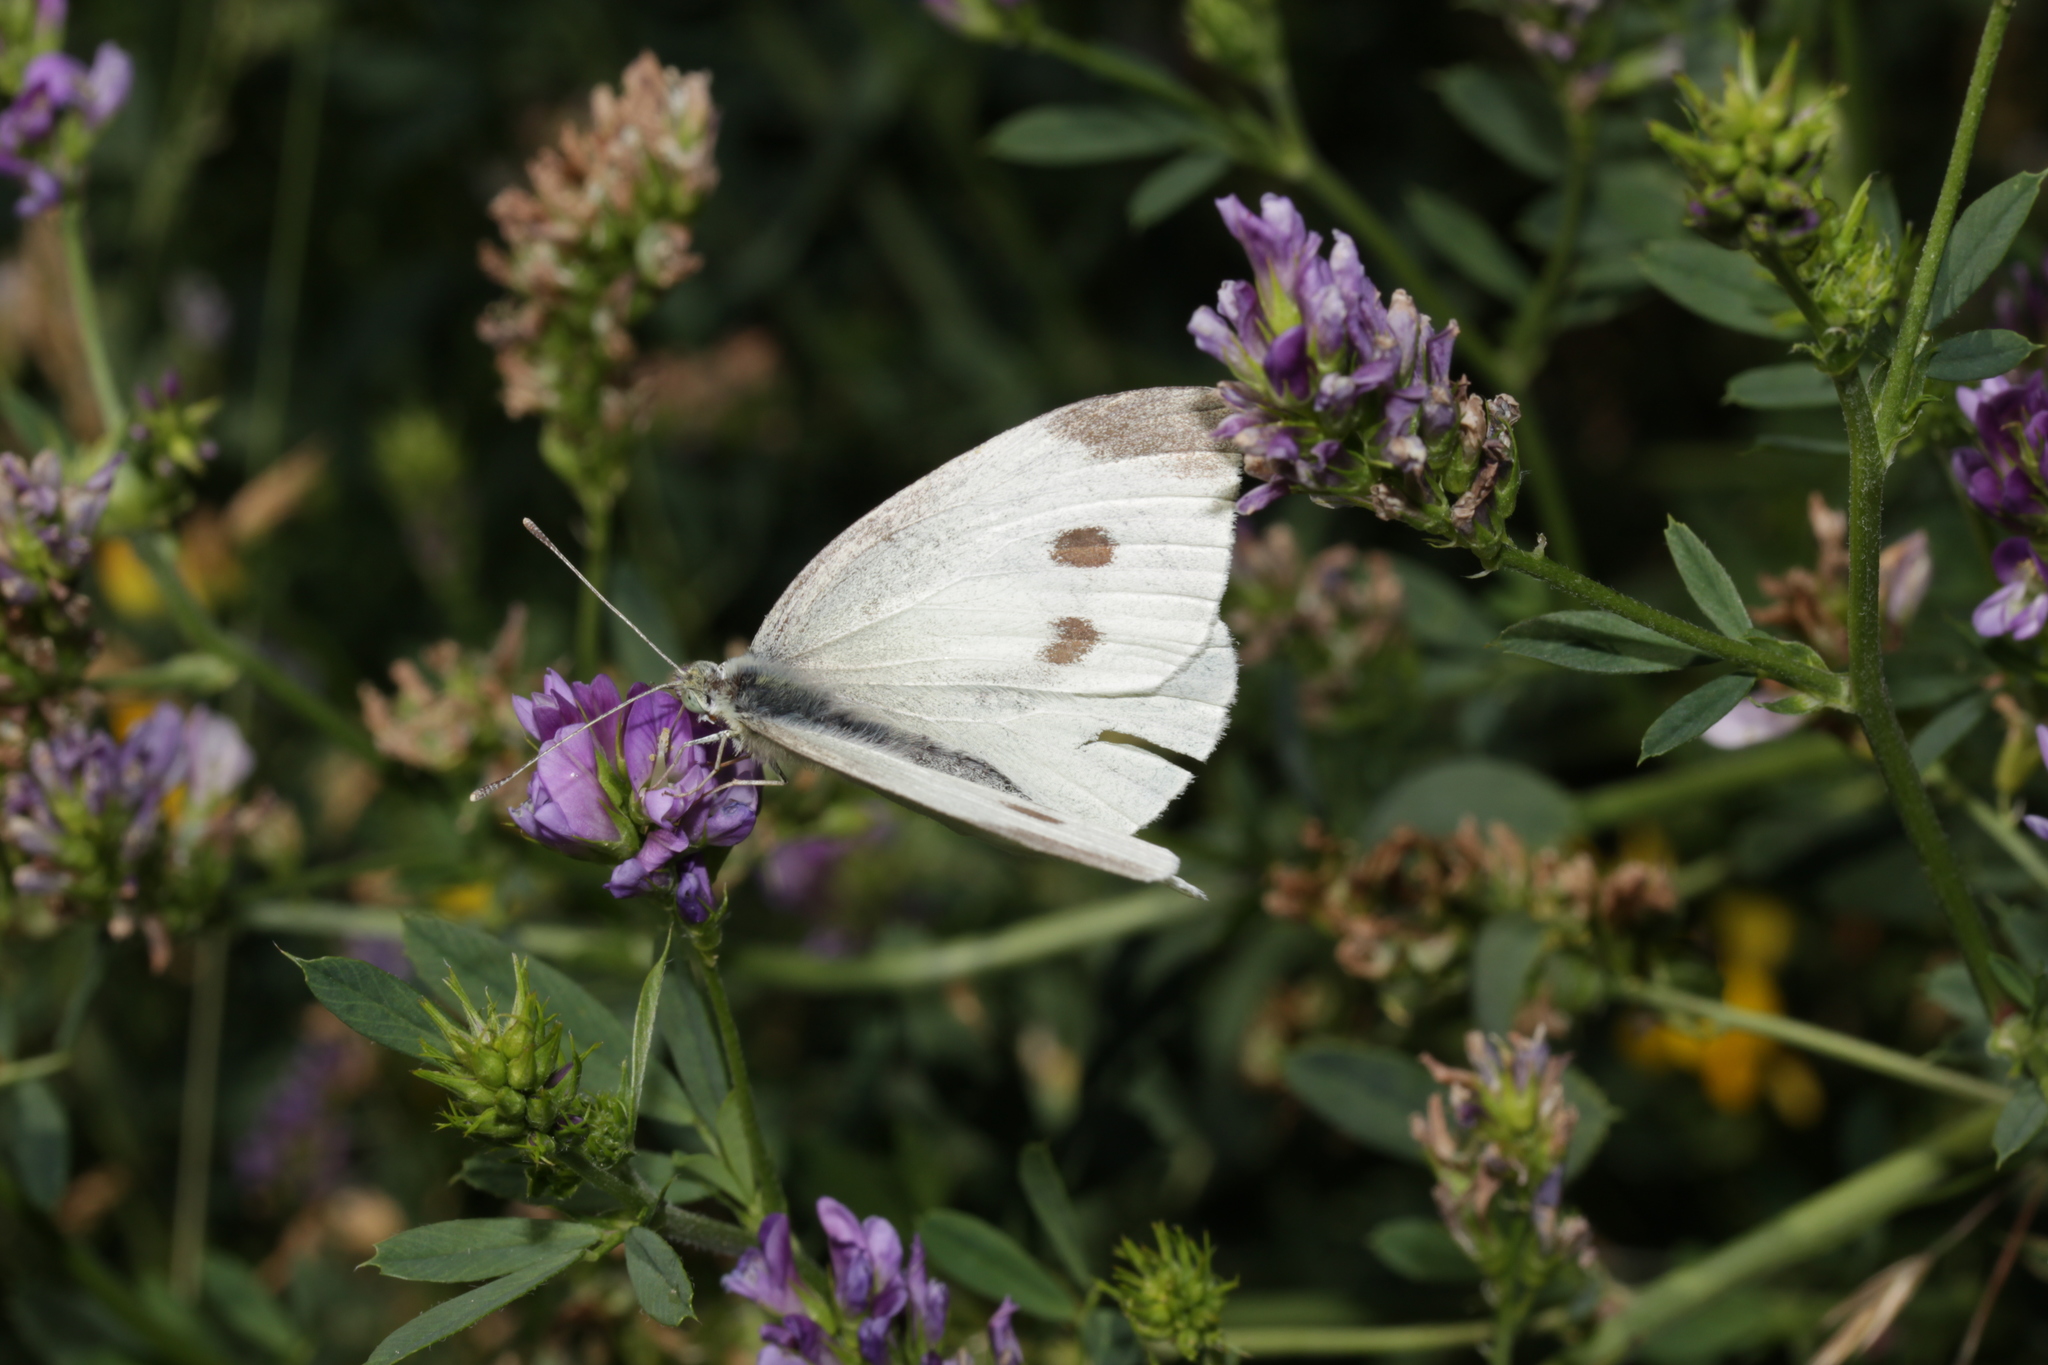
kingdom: Animalia
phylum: Arthropoda
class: Insecta
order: Lepidoptera
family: Pieridae
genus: Pieris
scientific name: Pieris rapae
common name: Small white
